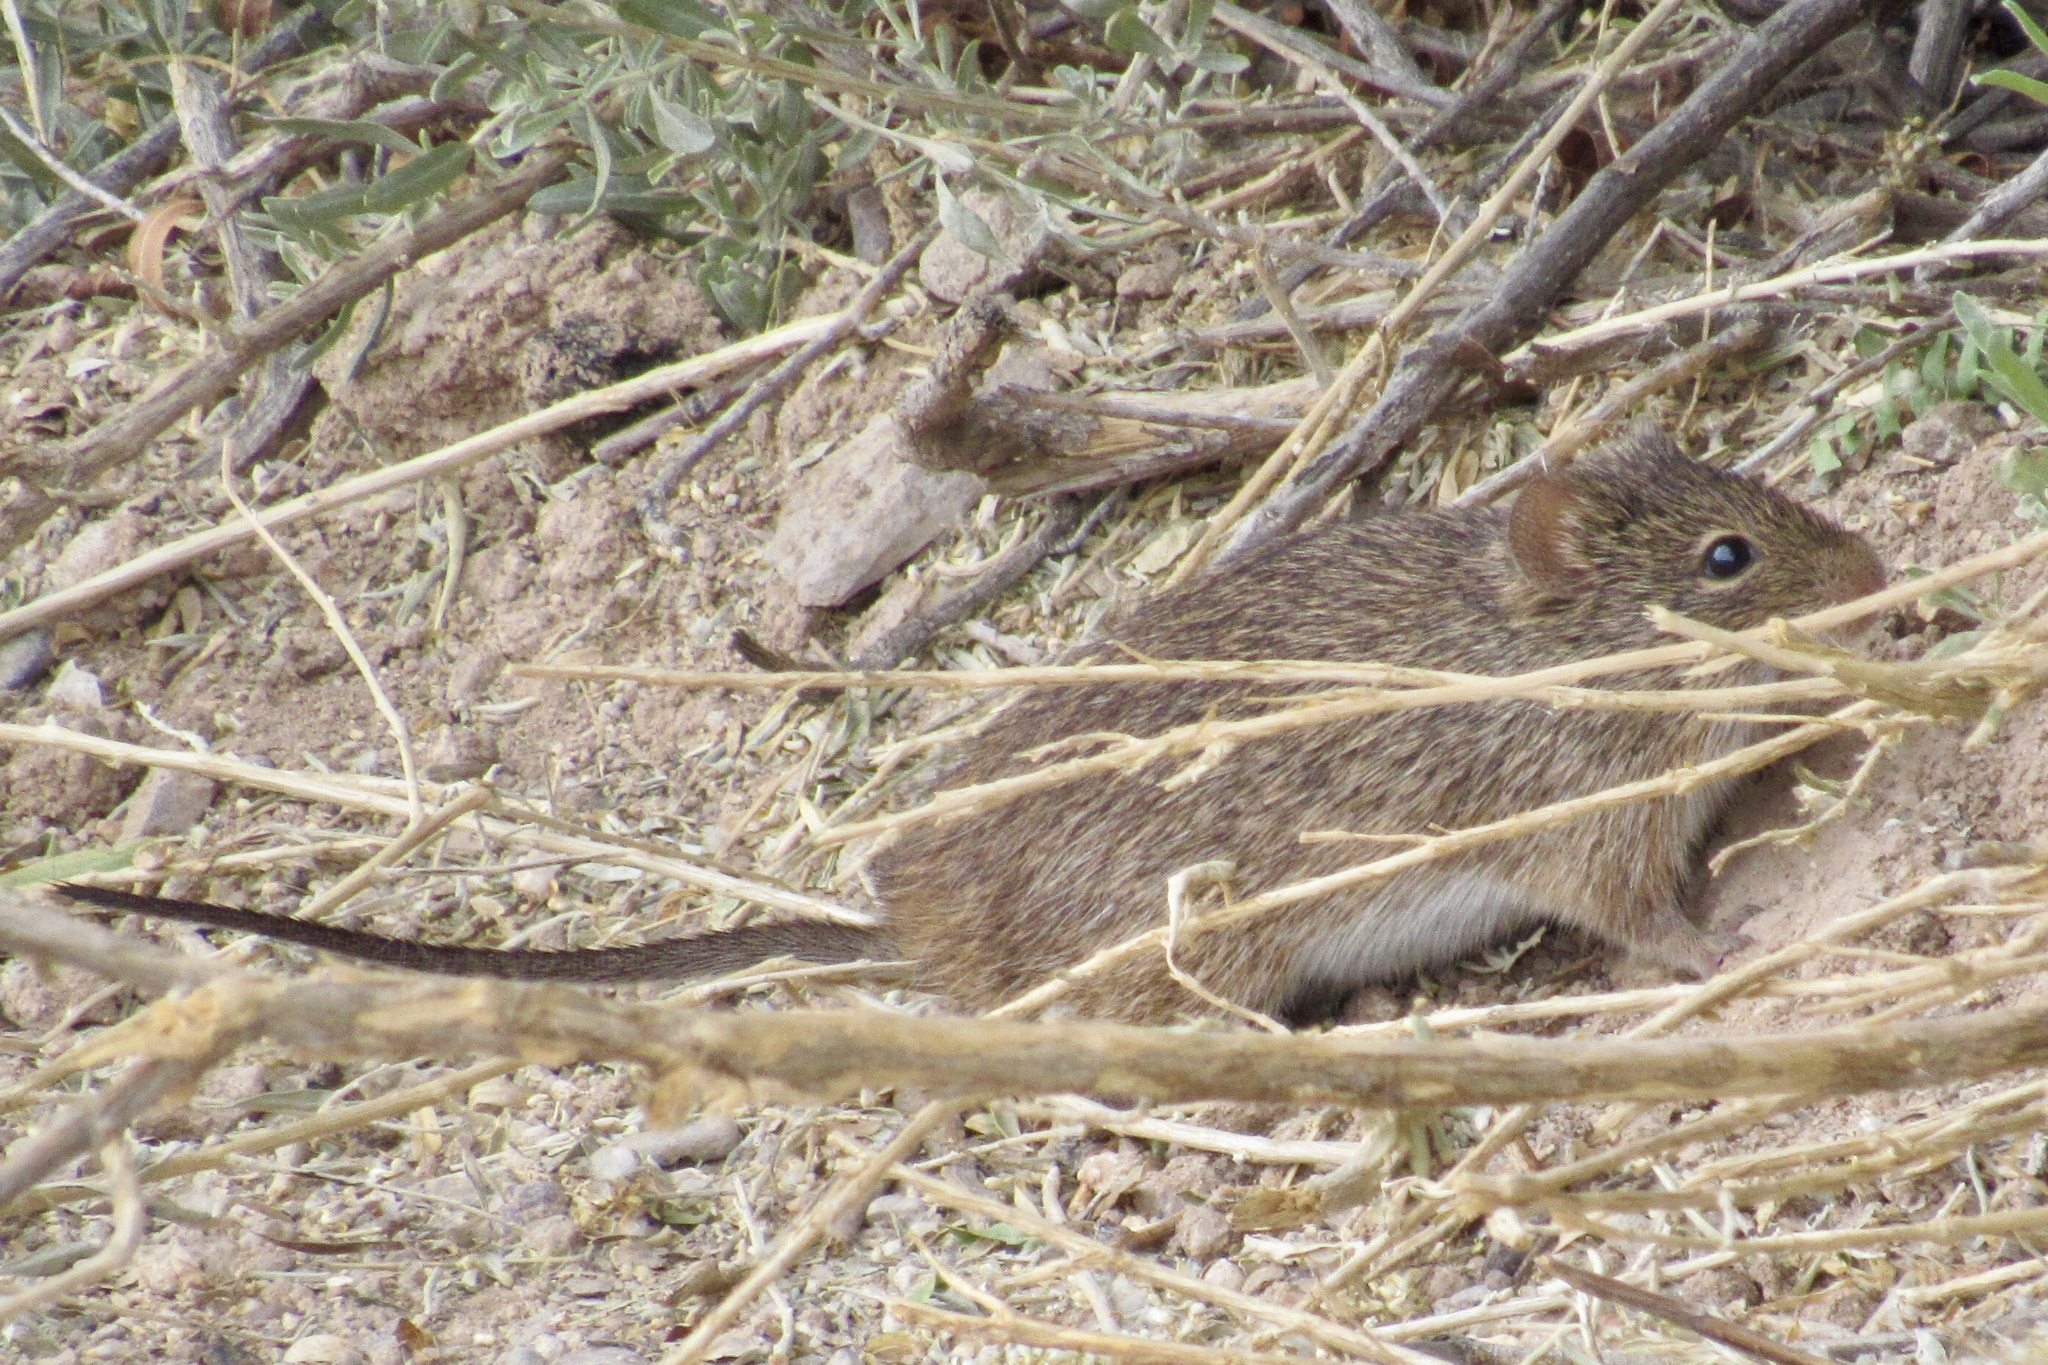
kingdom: Animalia
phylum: Chordata
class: Mammalia
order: Rodentia
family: Cricetidae
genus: Sigmodon
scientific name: Sigmodon arizonae
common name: Arizona cotton rat
